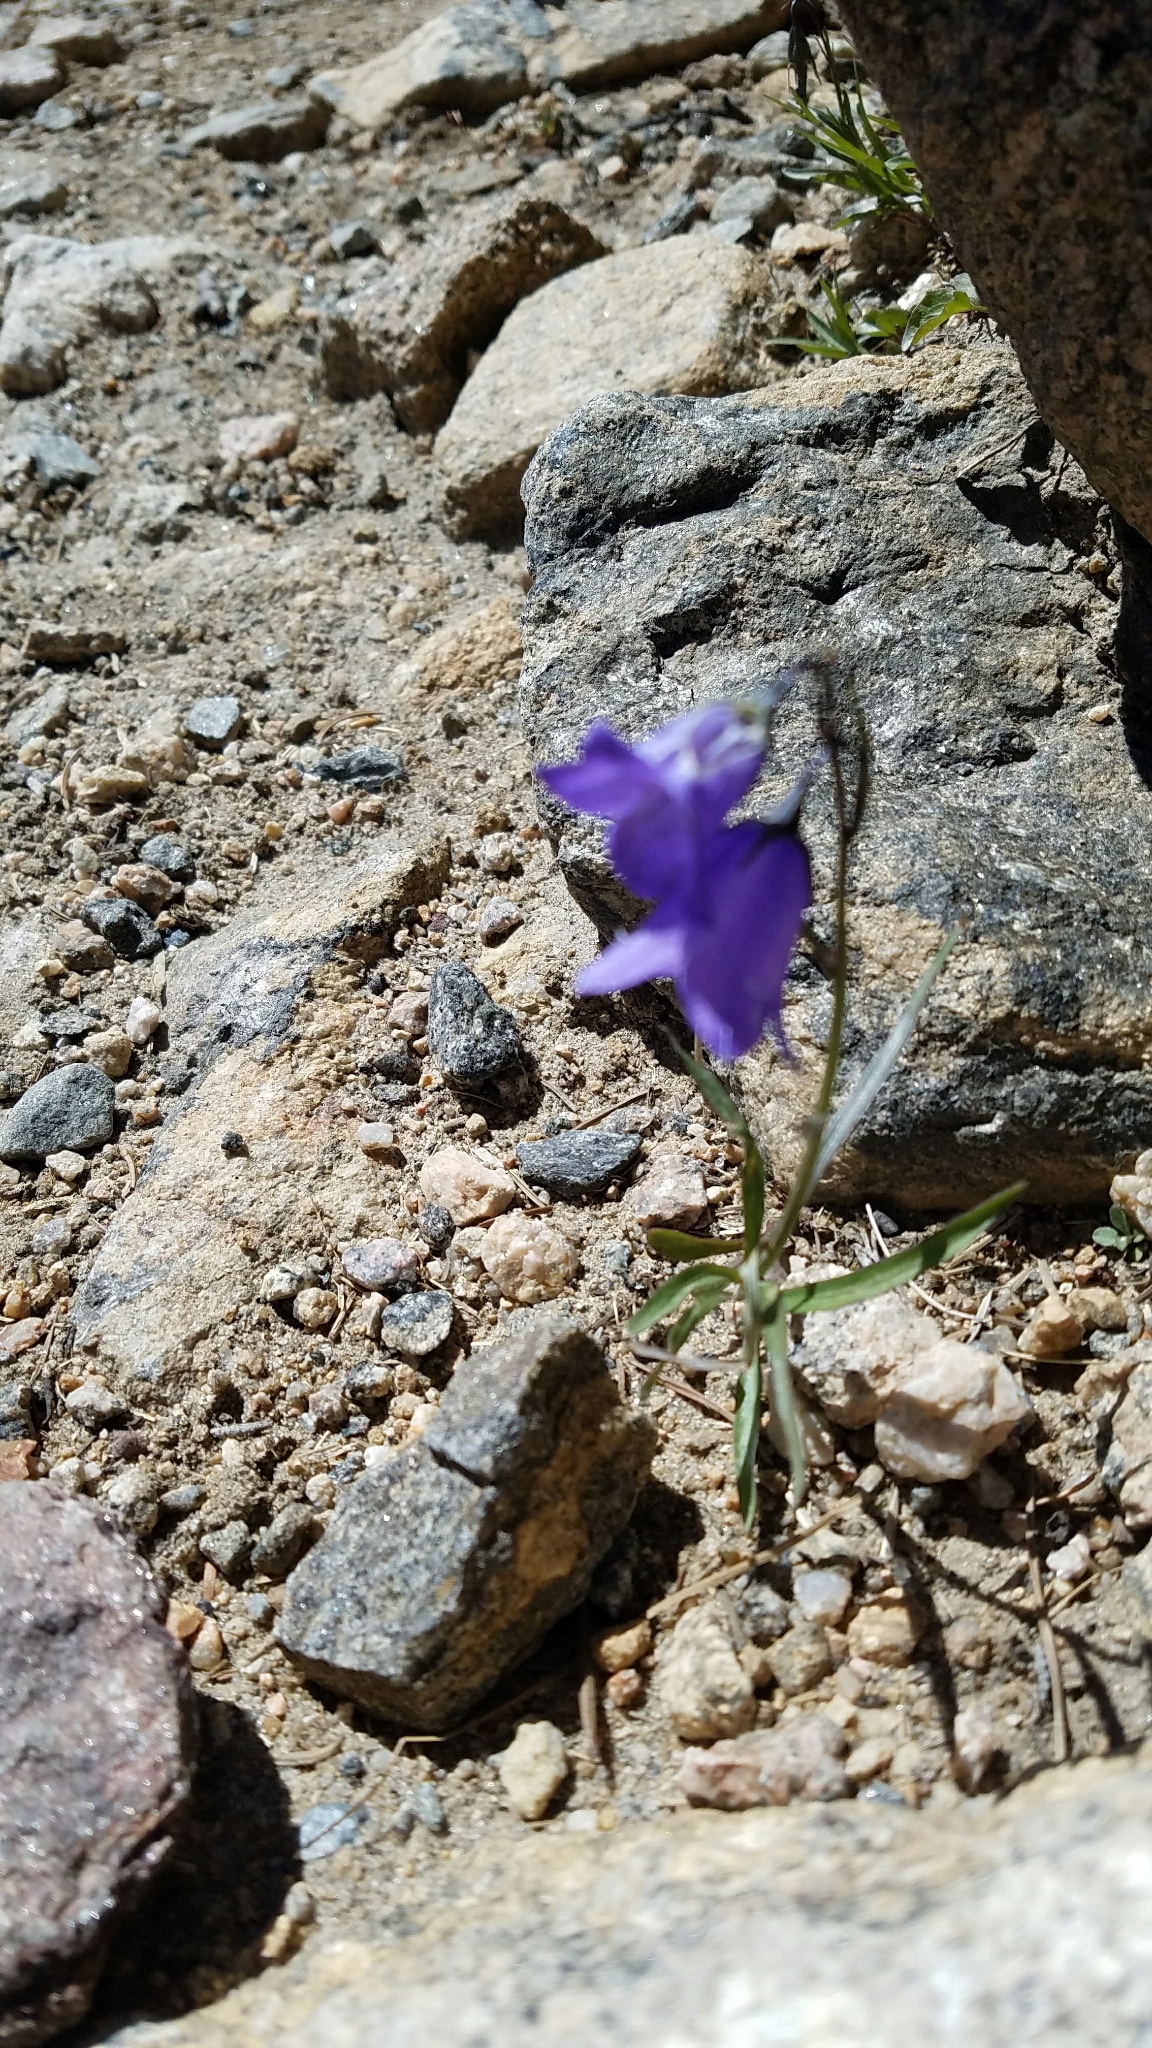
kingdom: Plantae
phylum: Tracheophyta
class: Magnoliopsida
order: Asterales
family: Campanulaceae
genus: Campanula
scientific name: Campanula petiolata
